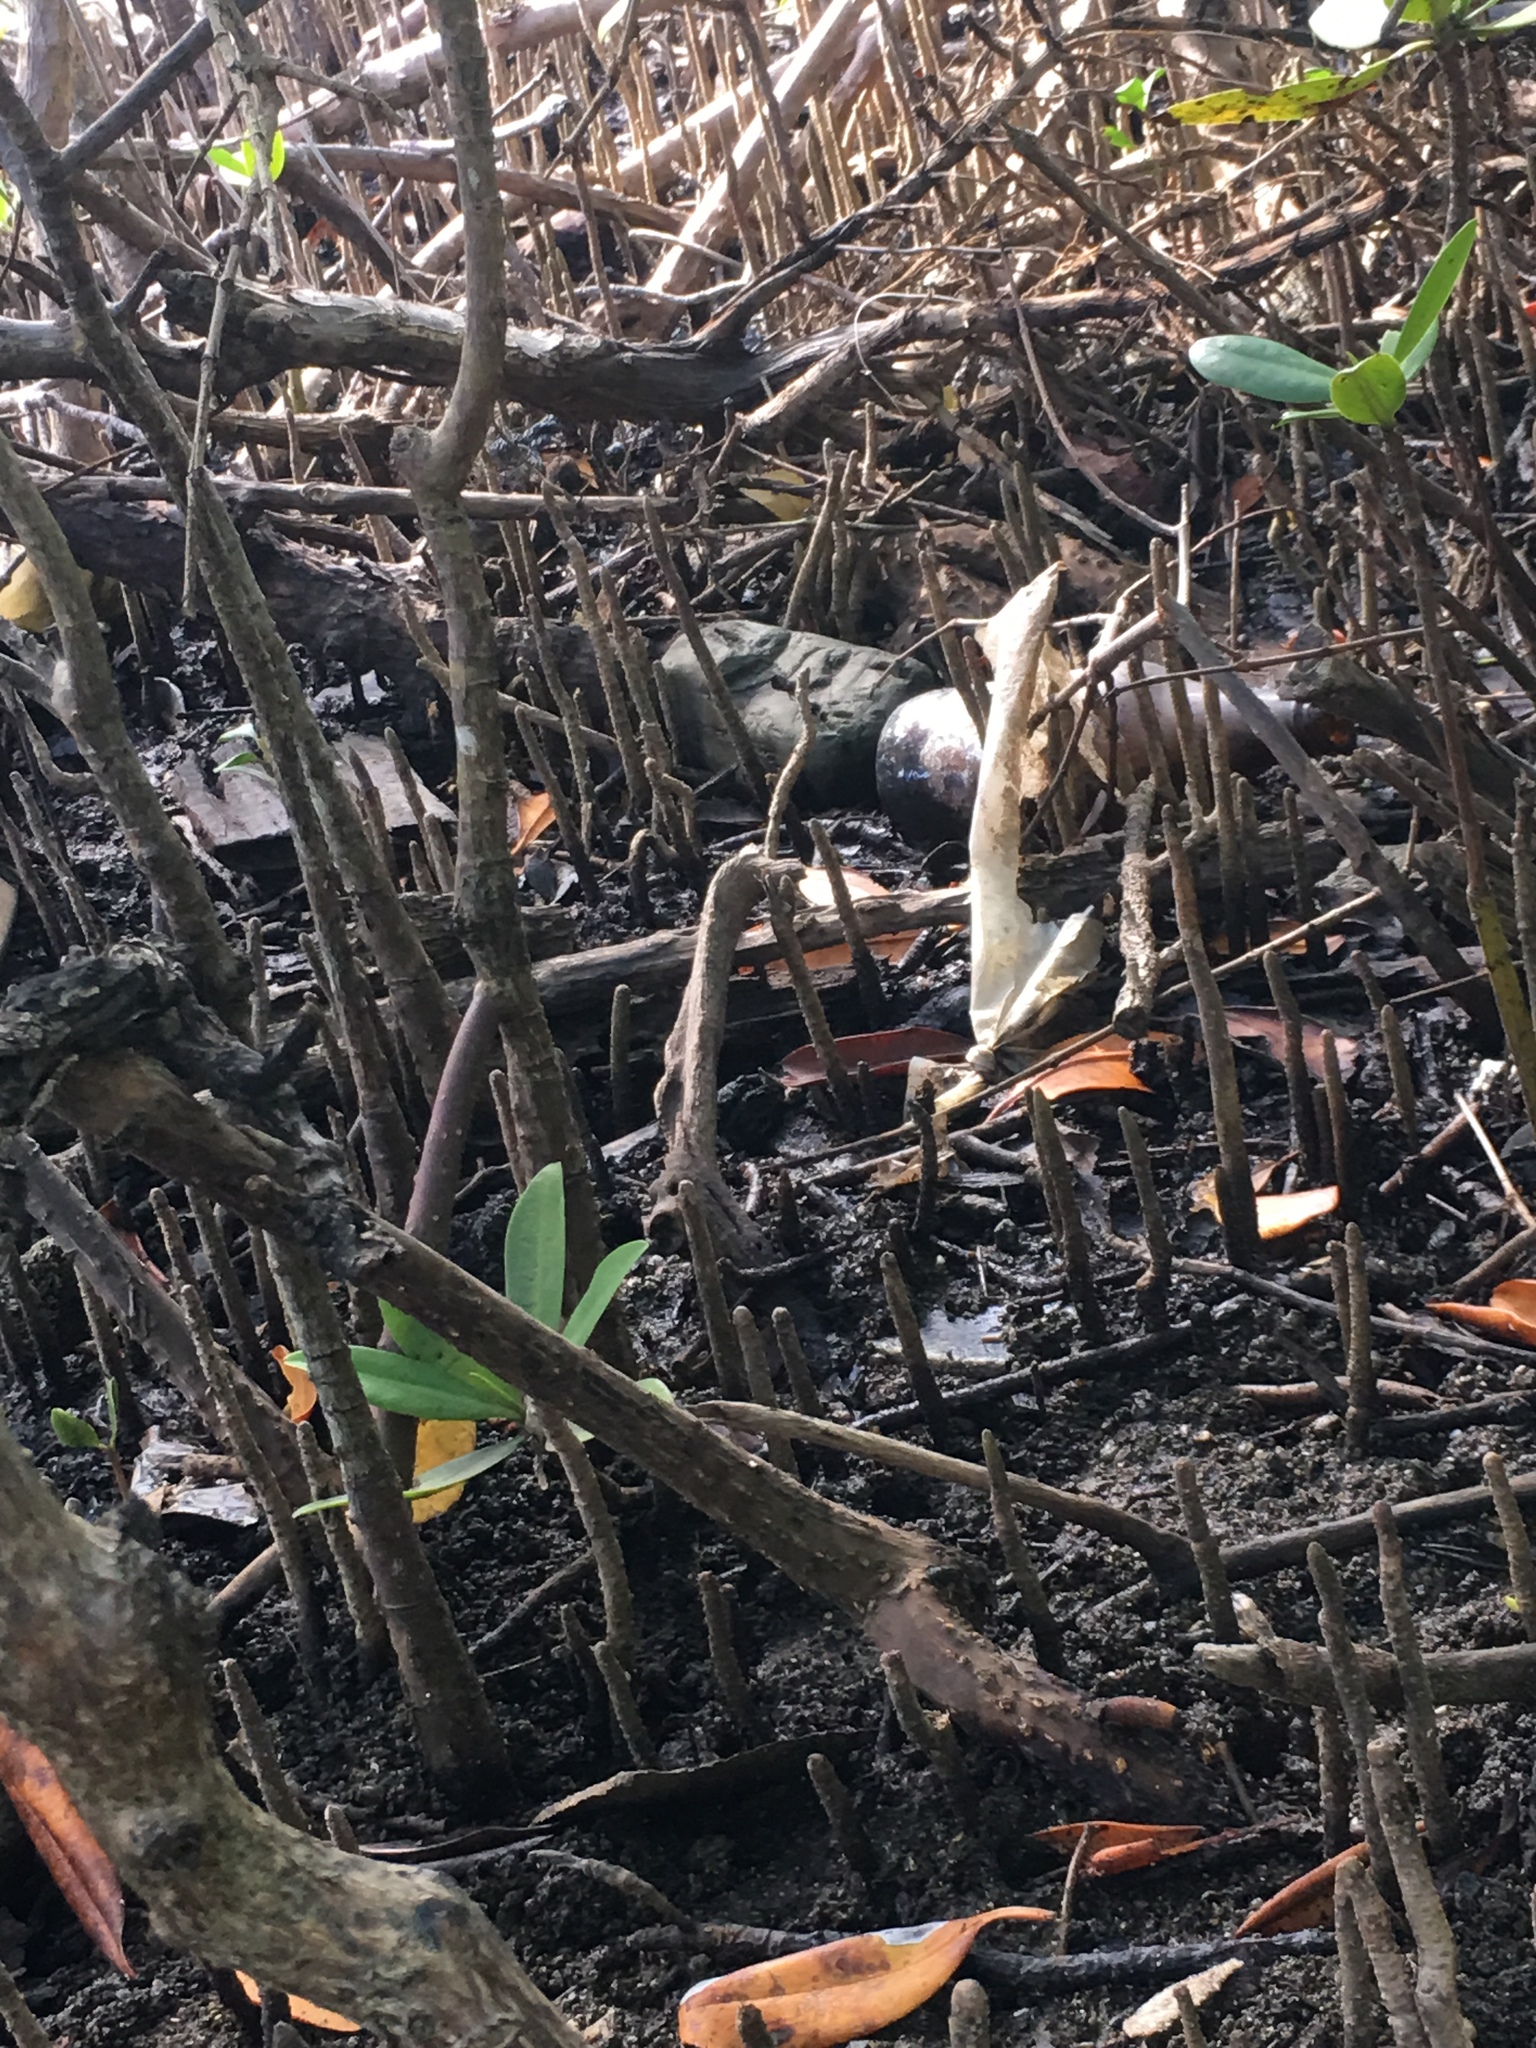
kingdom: Plantae
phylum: Tracheophyta
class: Magnoliopsida
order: Malpighiales
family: Rhizophoraceae
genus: Rhizophora
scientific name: Rhizophora mangle
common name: Red mangrove
